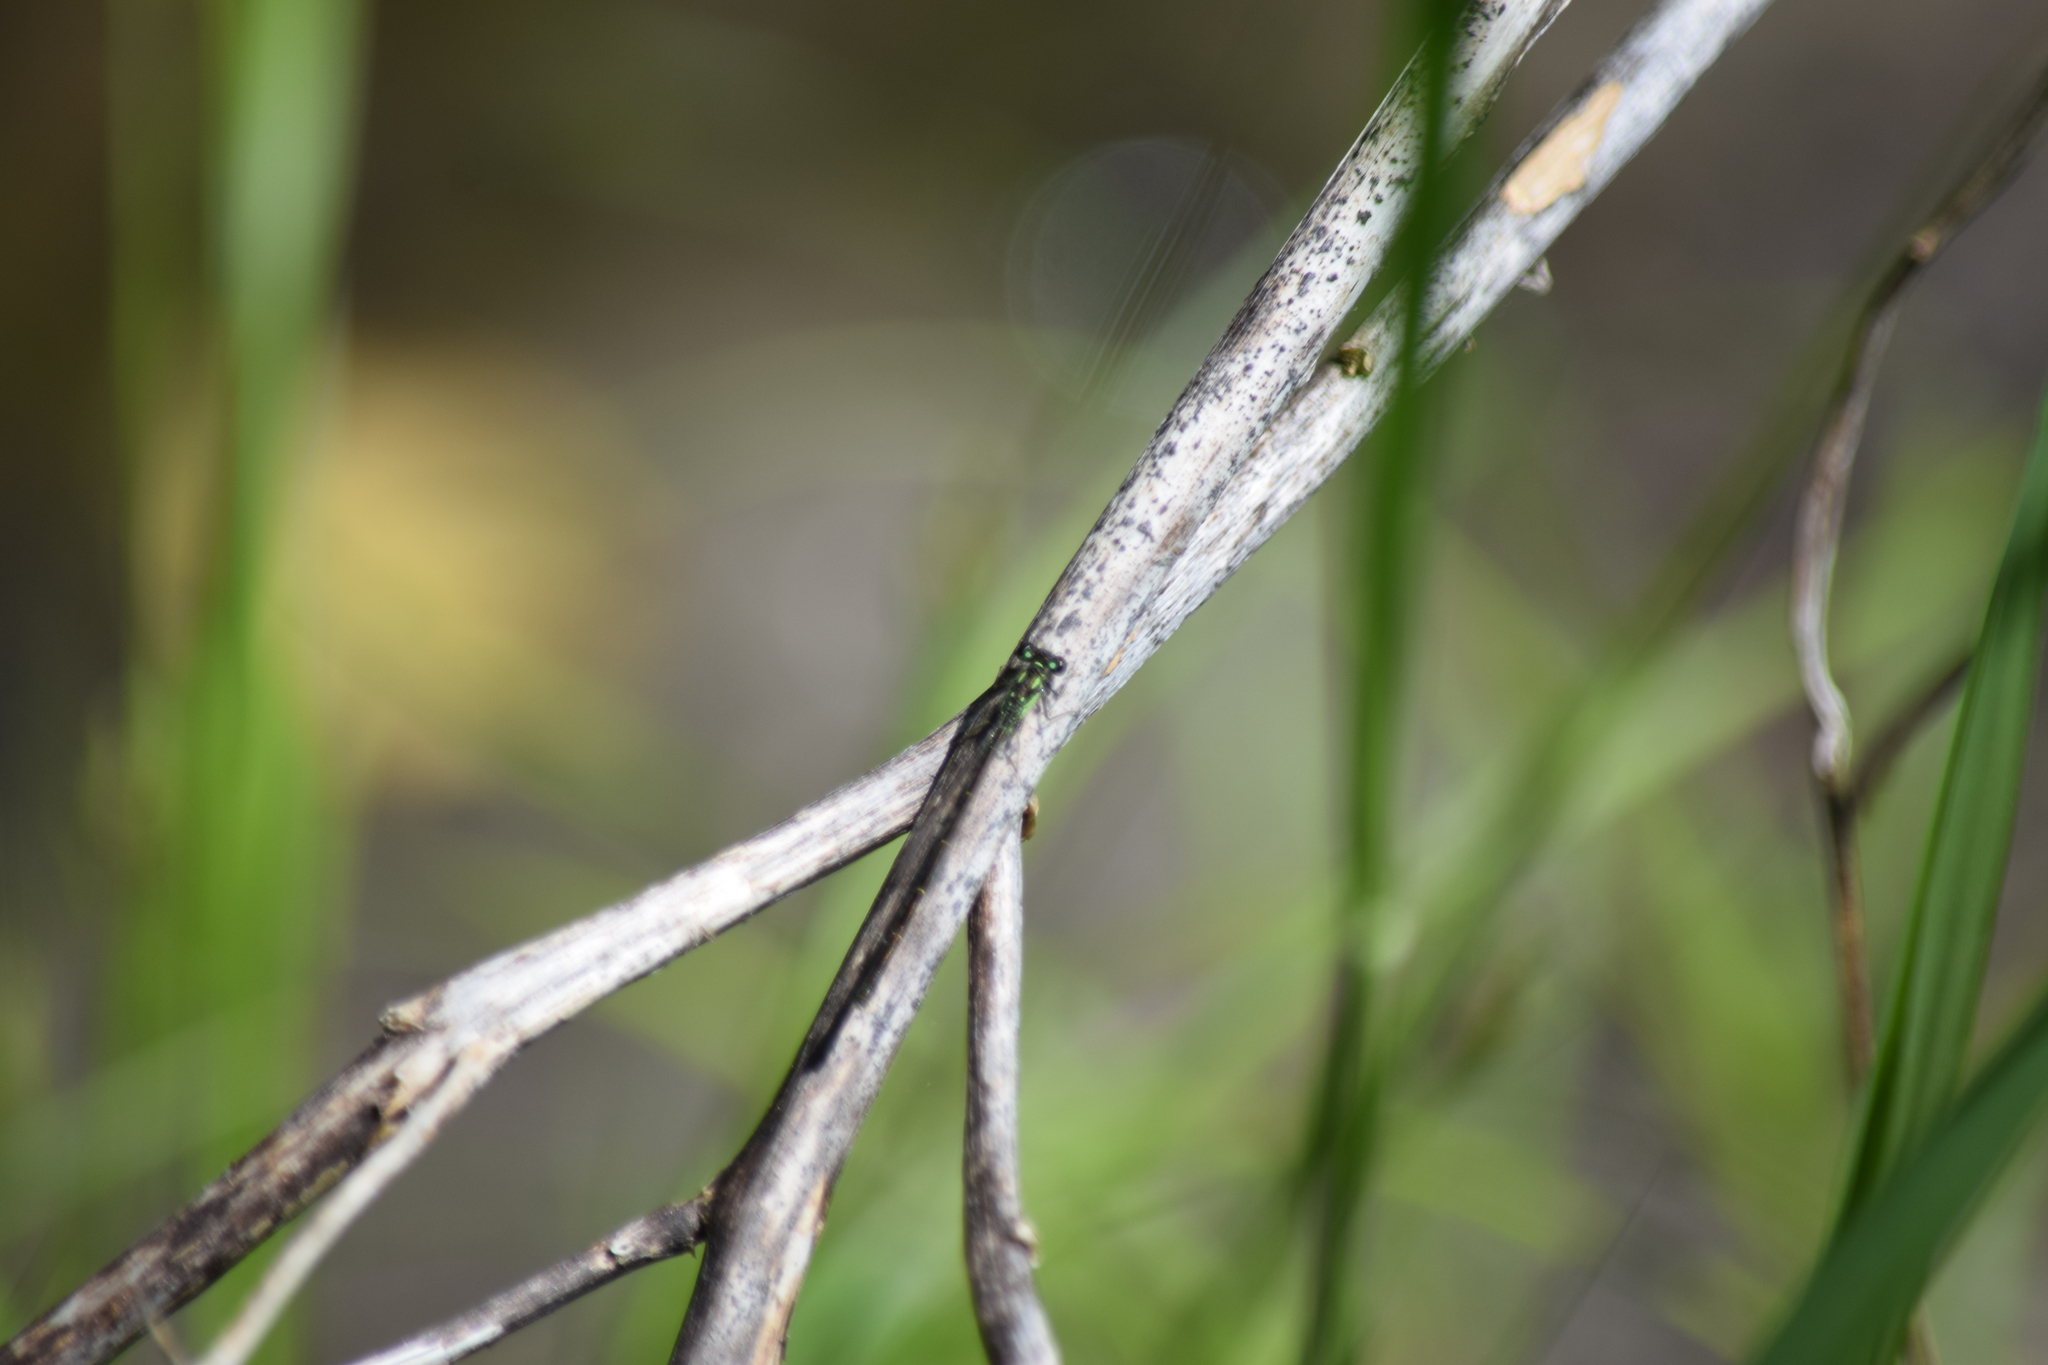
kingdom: Animalia
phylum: Arthropoda
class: Insecta
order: Odonata
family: Coenagrionidae
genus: Ischnura
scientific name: Ischnura posita
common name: Fragile forktail
